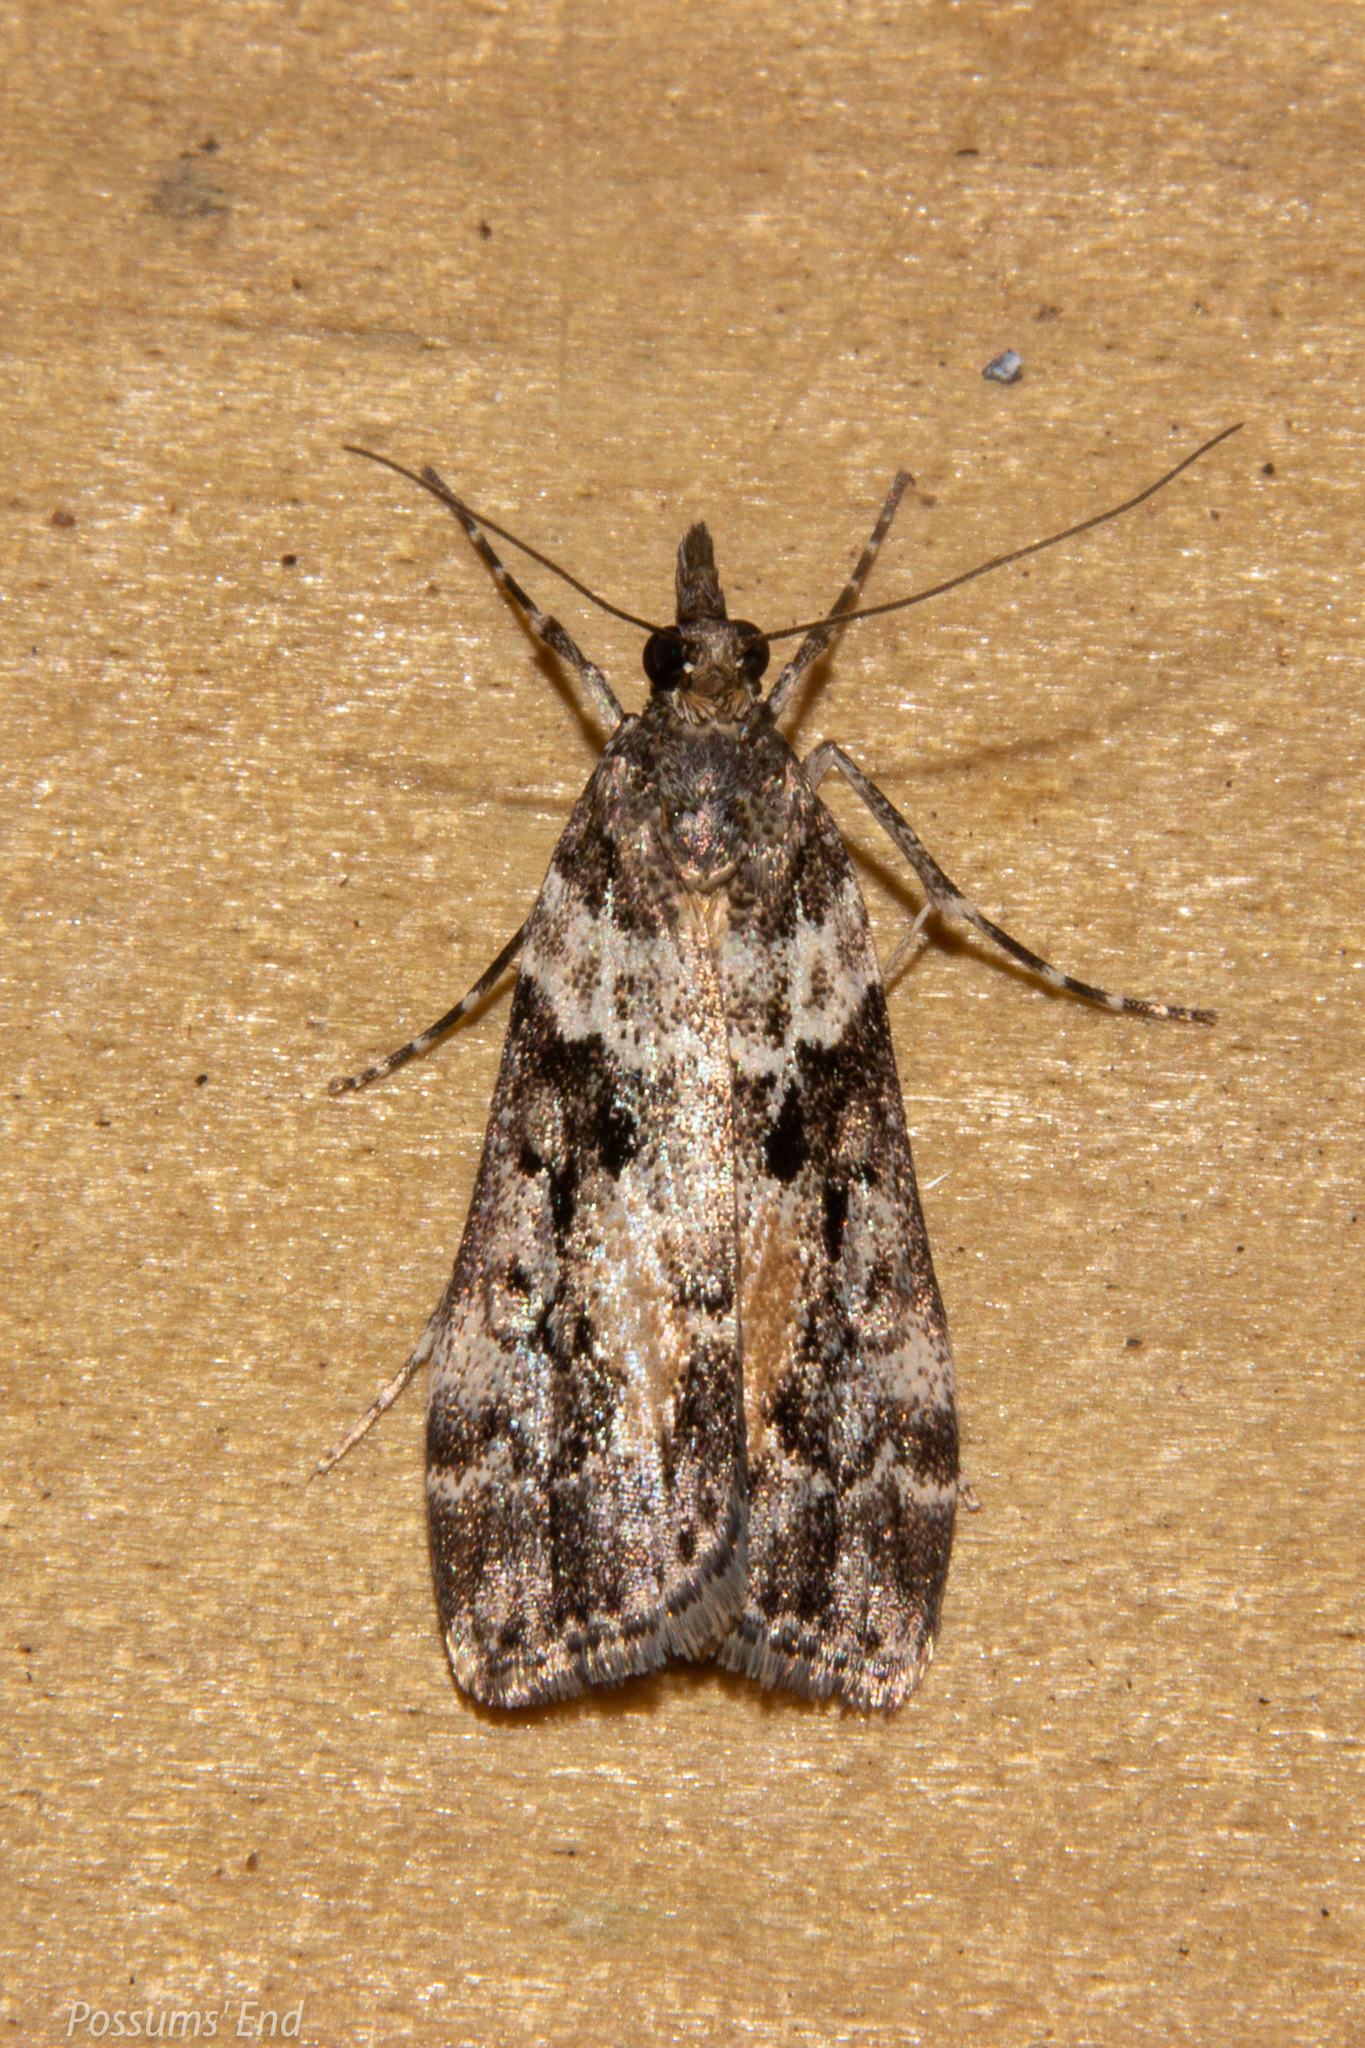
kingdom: Animalia
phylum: Arthropoda
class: Insecta
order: Lepidoptera
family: Crambidae
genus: Eudonia
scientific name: Eudonia submarginalis
